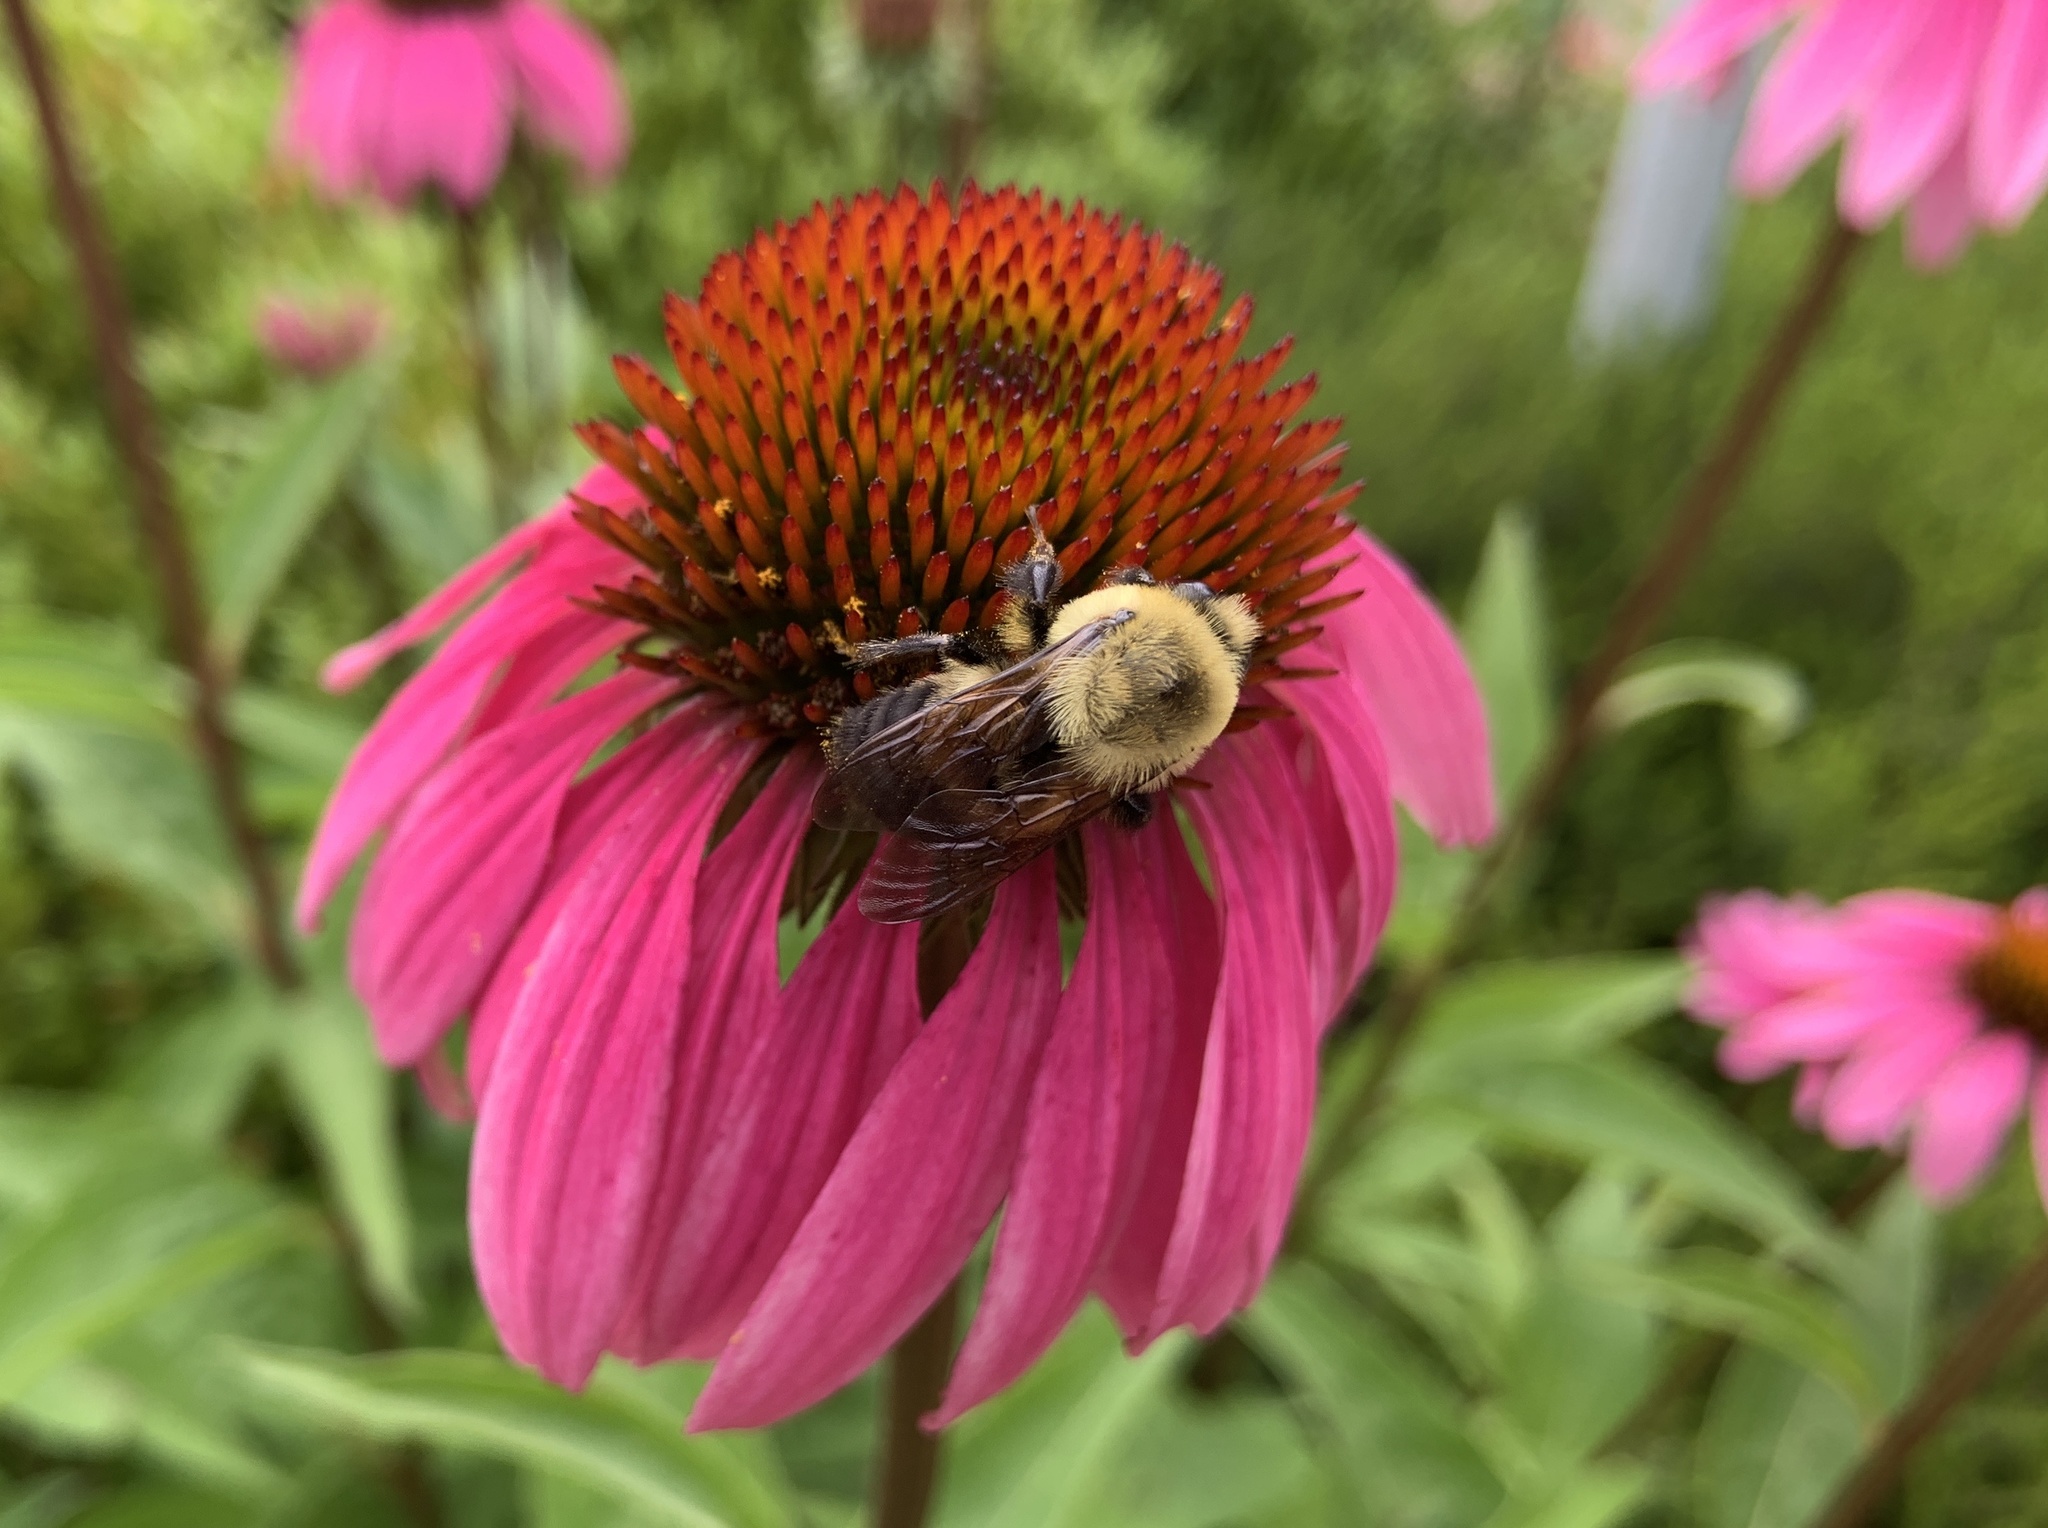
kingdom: Animalia
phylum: Arthropoda
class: Insecta
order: Hymenoptera
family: Apidae
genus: Bombus
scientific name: Bombus griseocollis
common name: Brown-belted bumble bee
